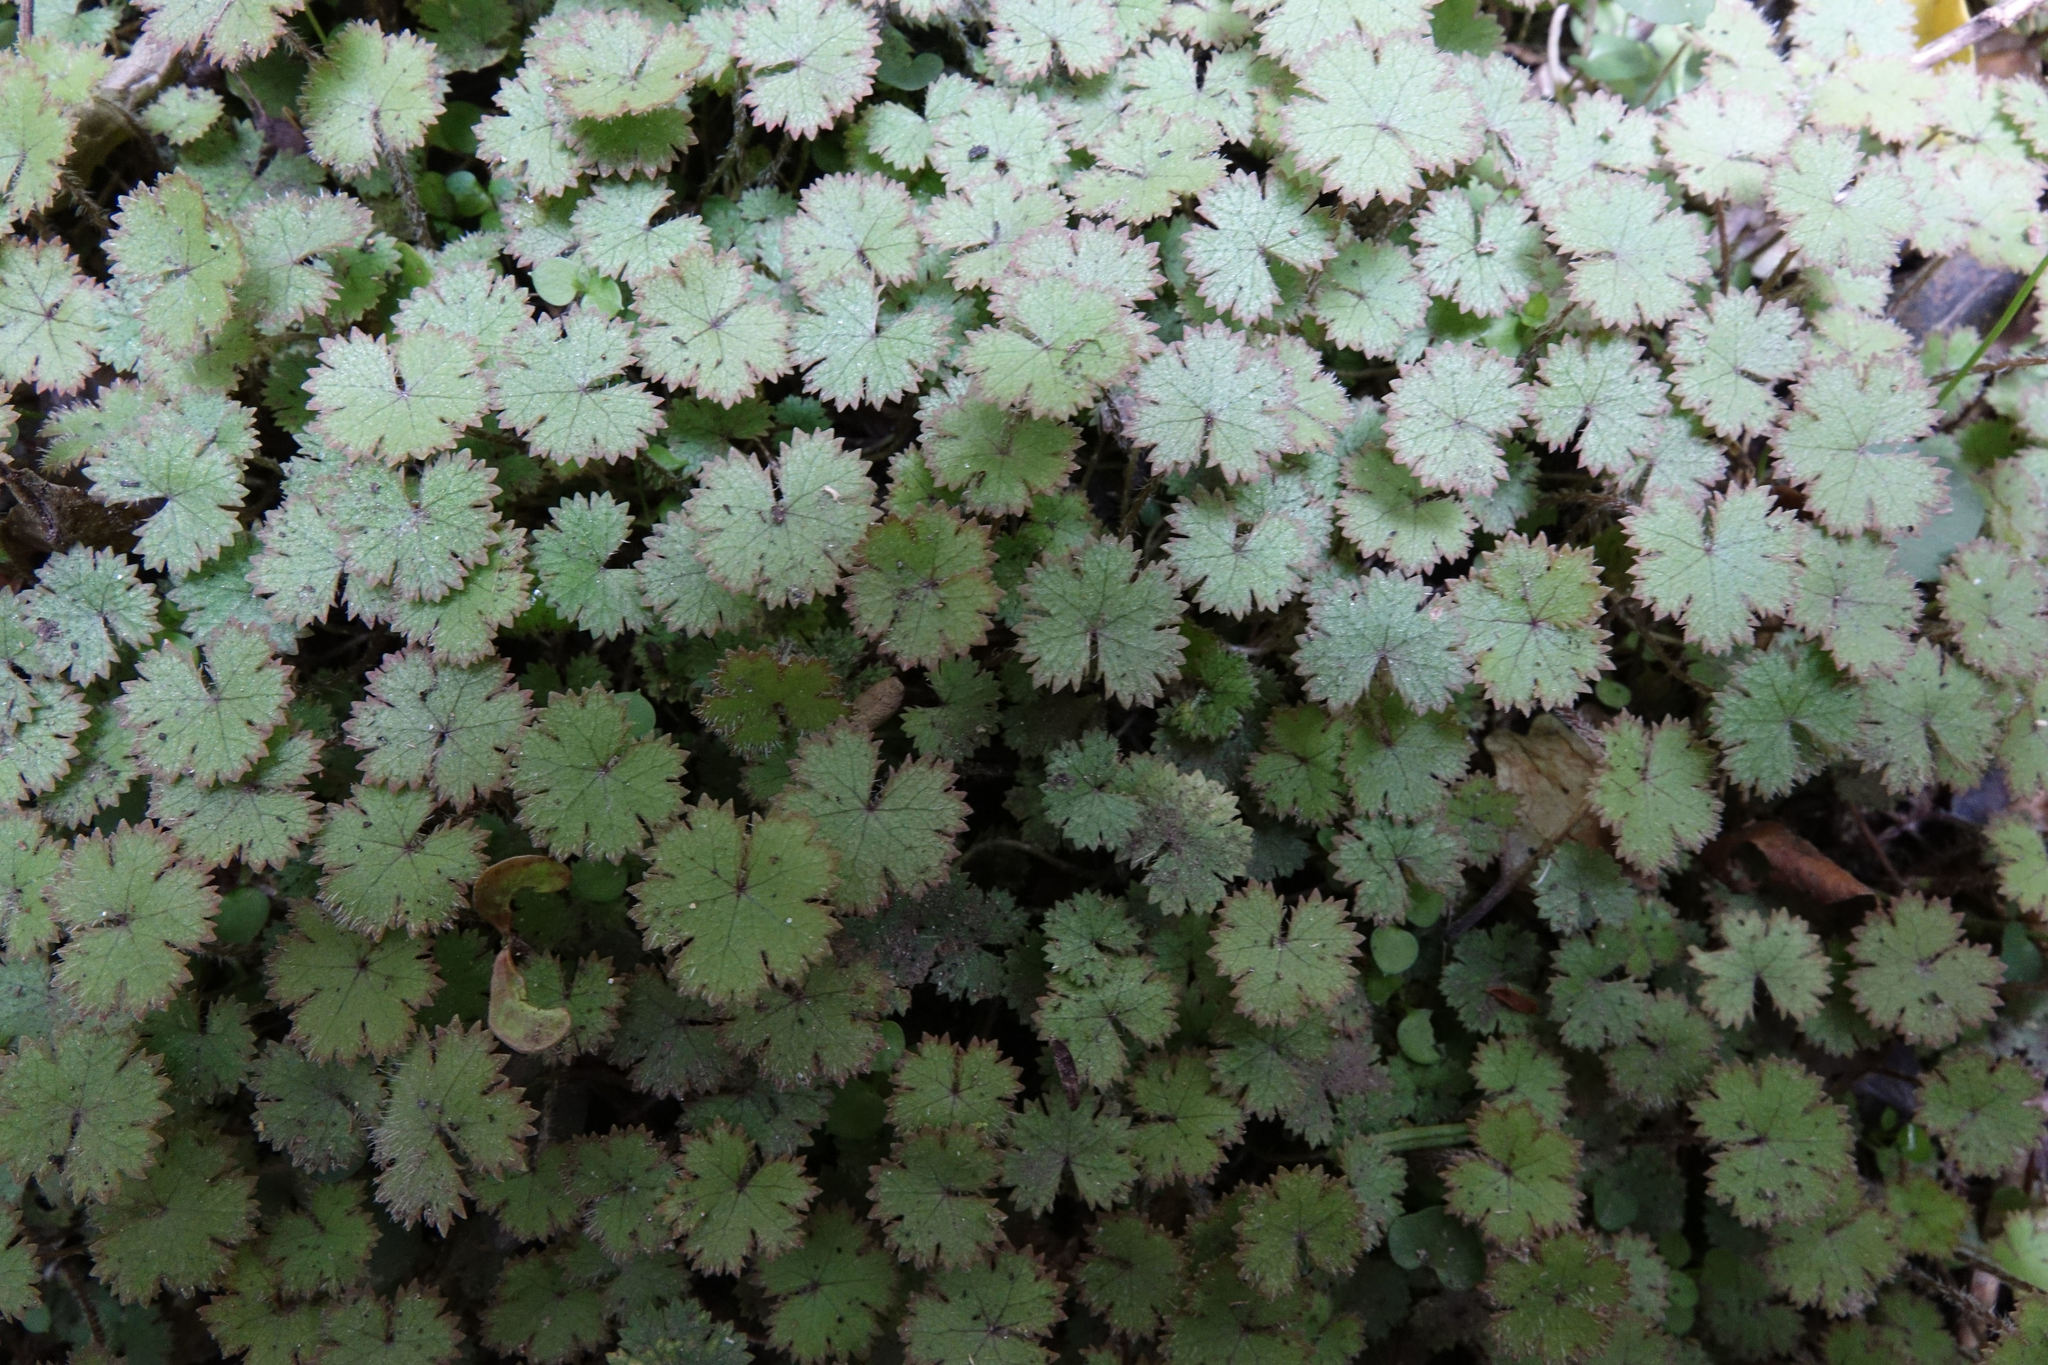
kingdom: Plantae
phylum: Tracheophyta
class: Magnoliopsida
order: Apiales
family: Araliaceae
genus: Hydrocotyle
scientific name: Hydrocotyle moschata
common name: Hairy pennywort
